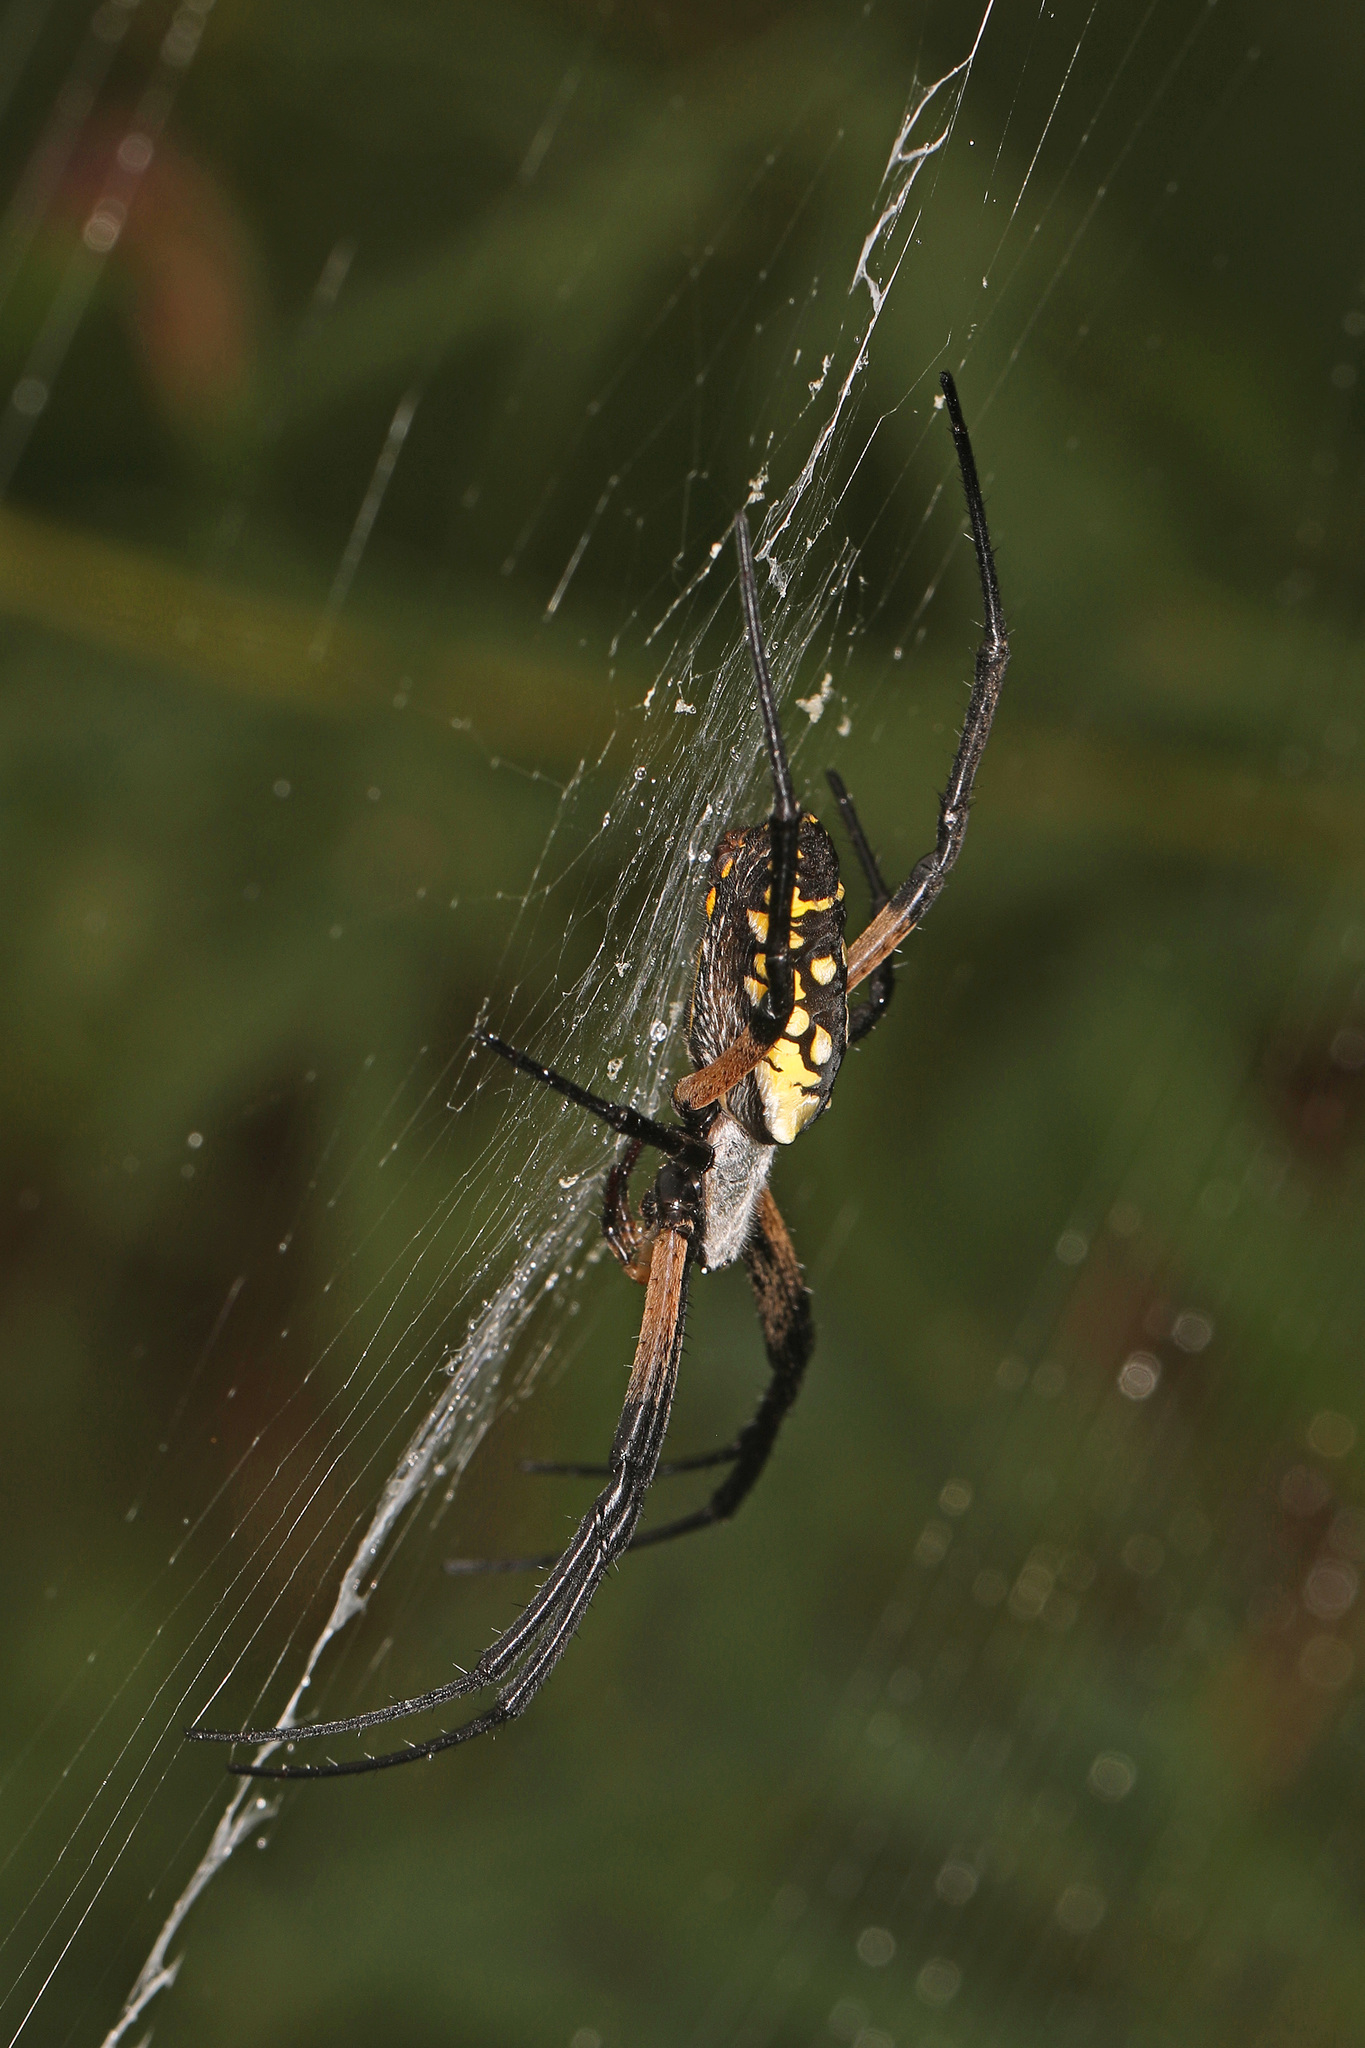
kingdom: Animalia
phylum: Arthropoda
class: Arachnida
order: Araneae
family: Araneidae
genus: Argiope
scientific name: Argiope aurantia
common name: Orb weavers
